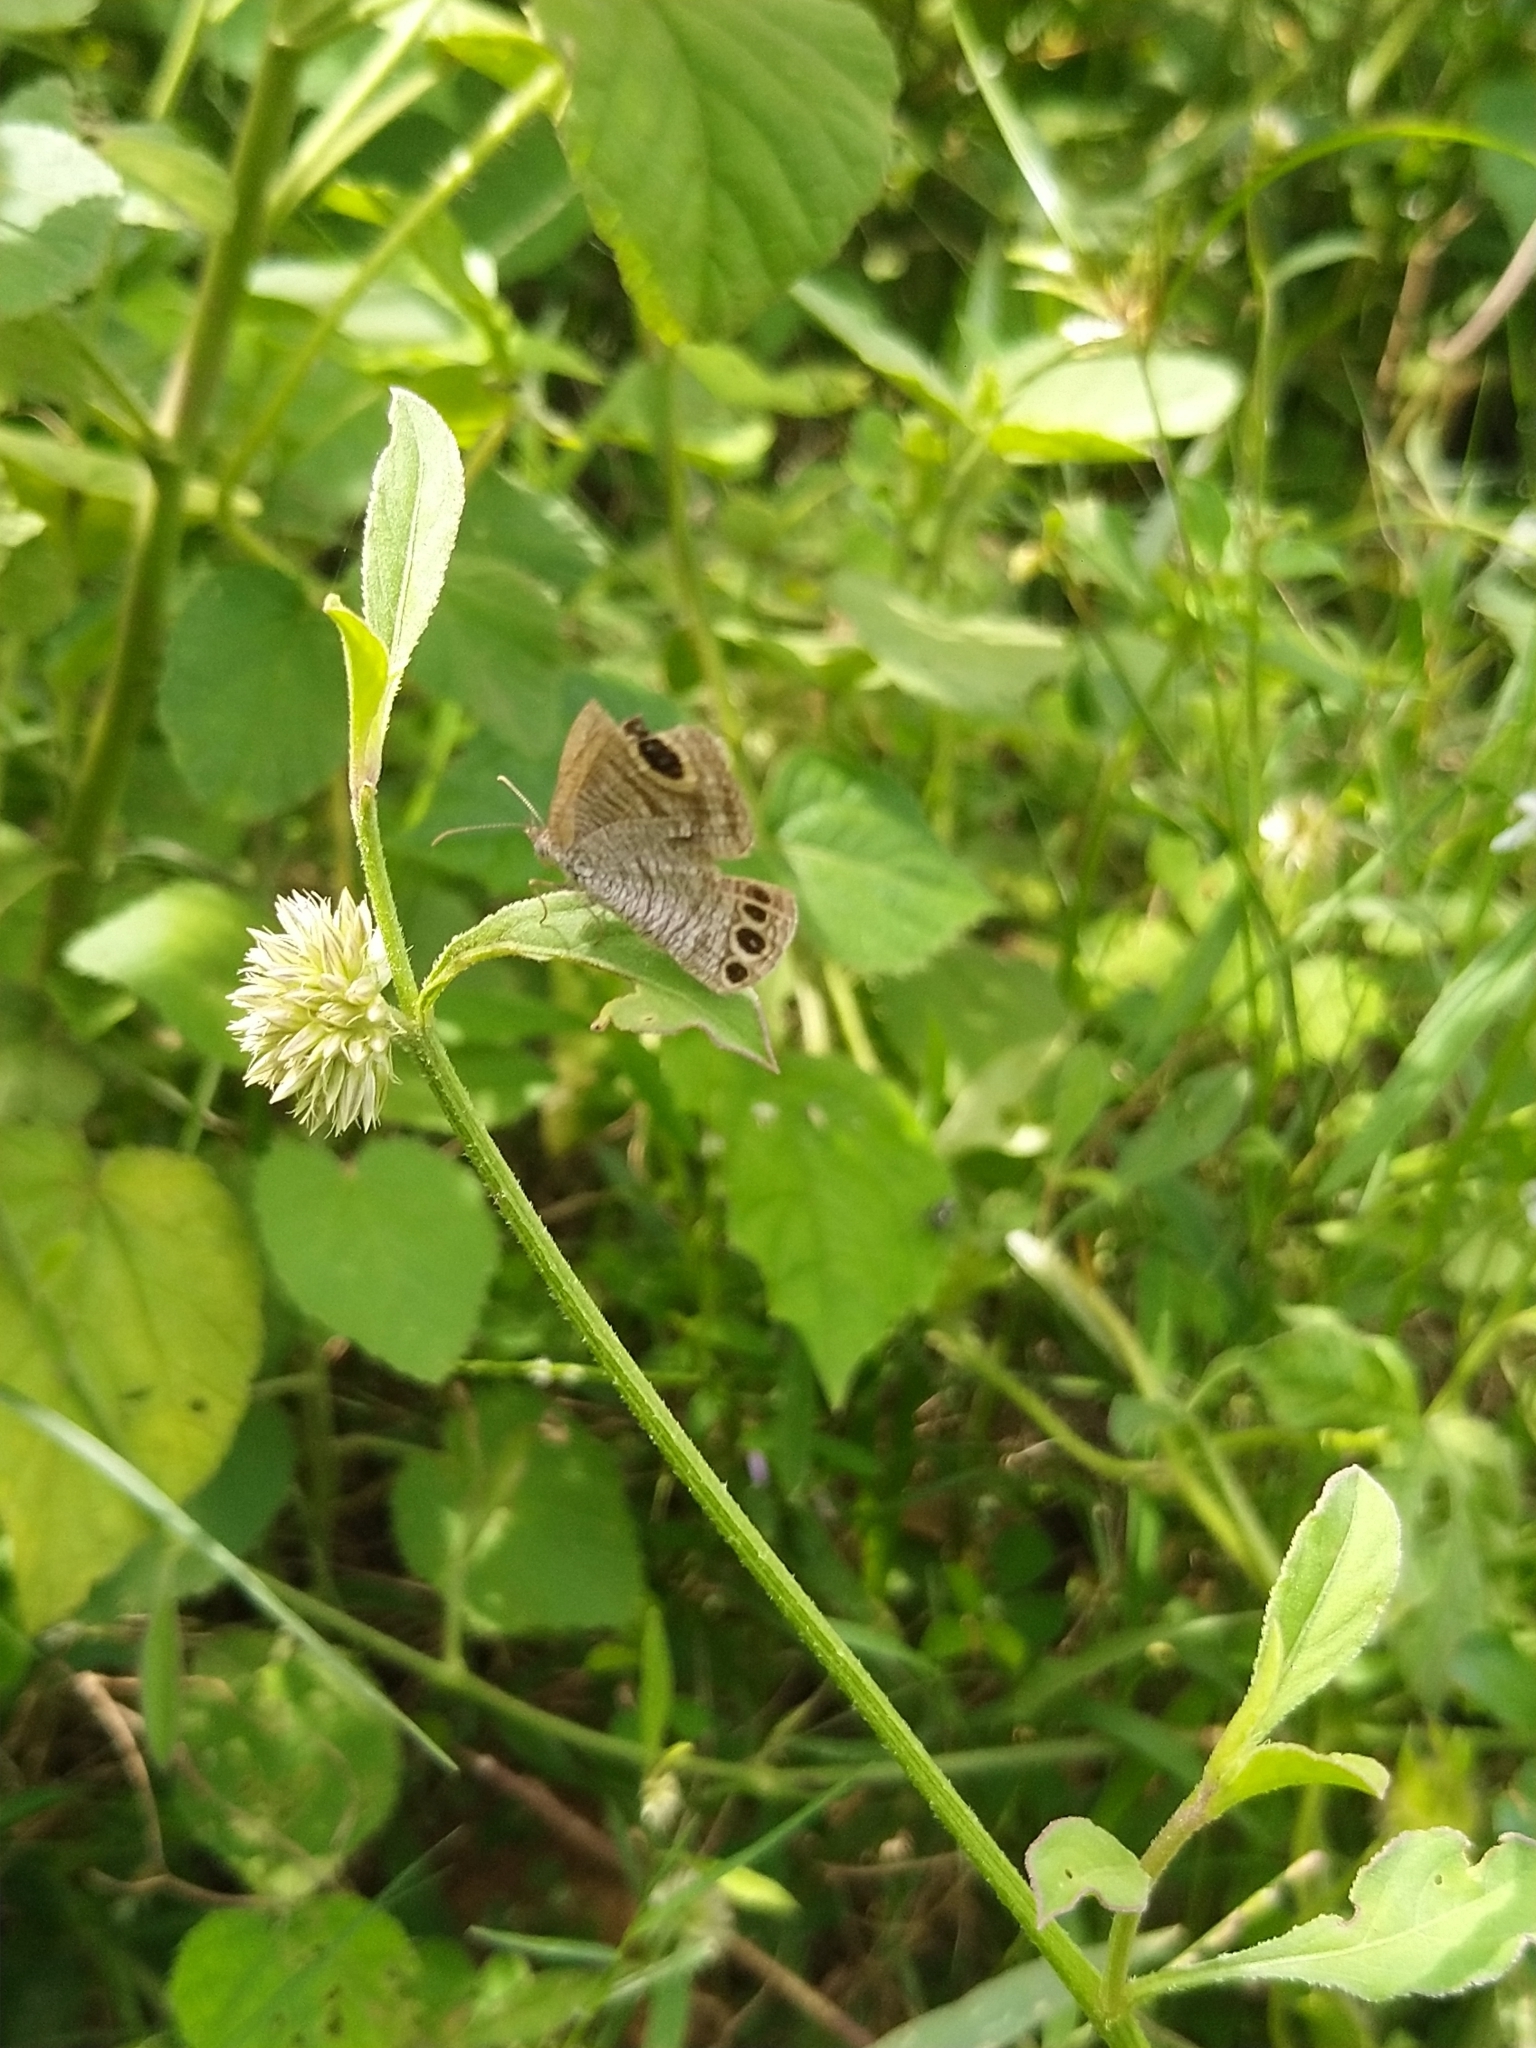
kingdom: Animalia
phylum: Arthropoda
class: Insecta
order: Lepidoptera
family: Nymphalidae
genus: Ypthima
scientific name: Ypthima huebneri
